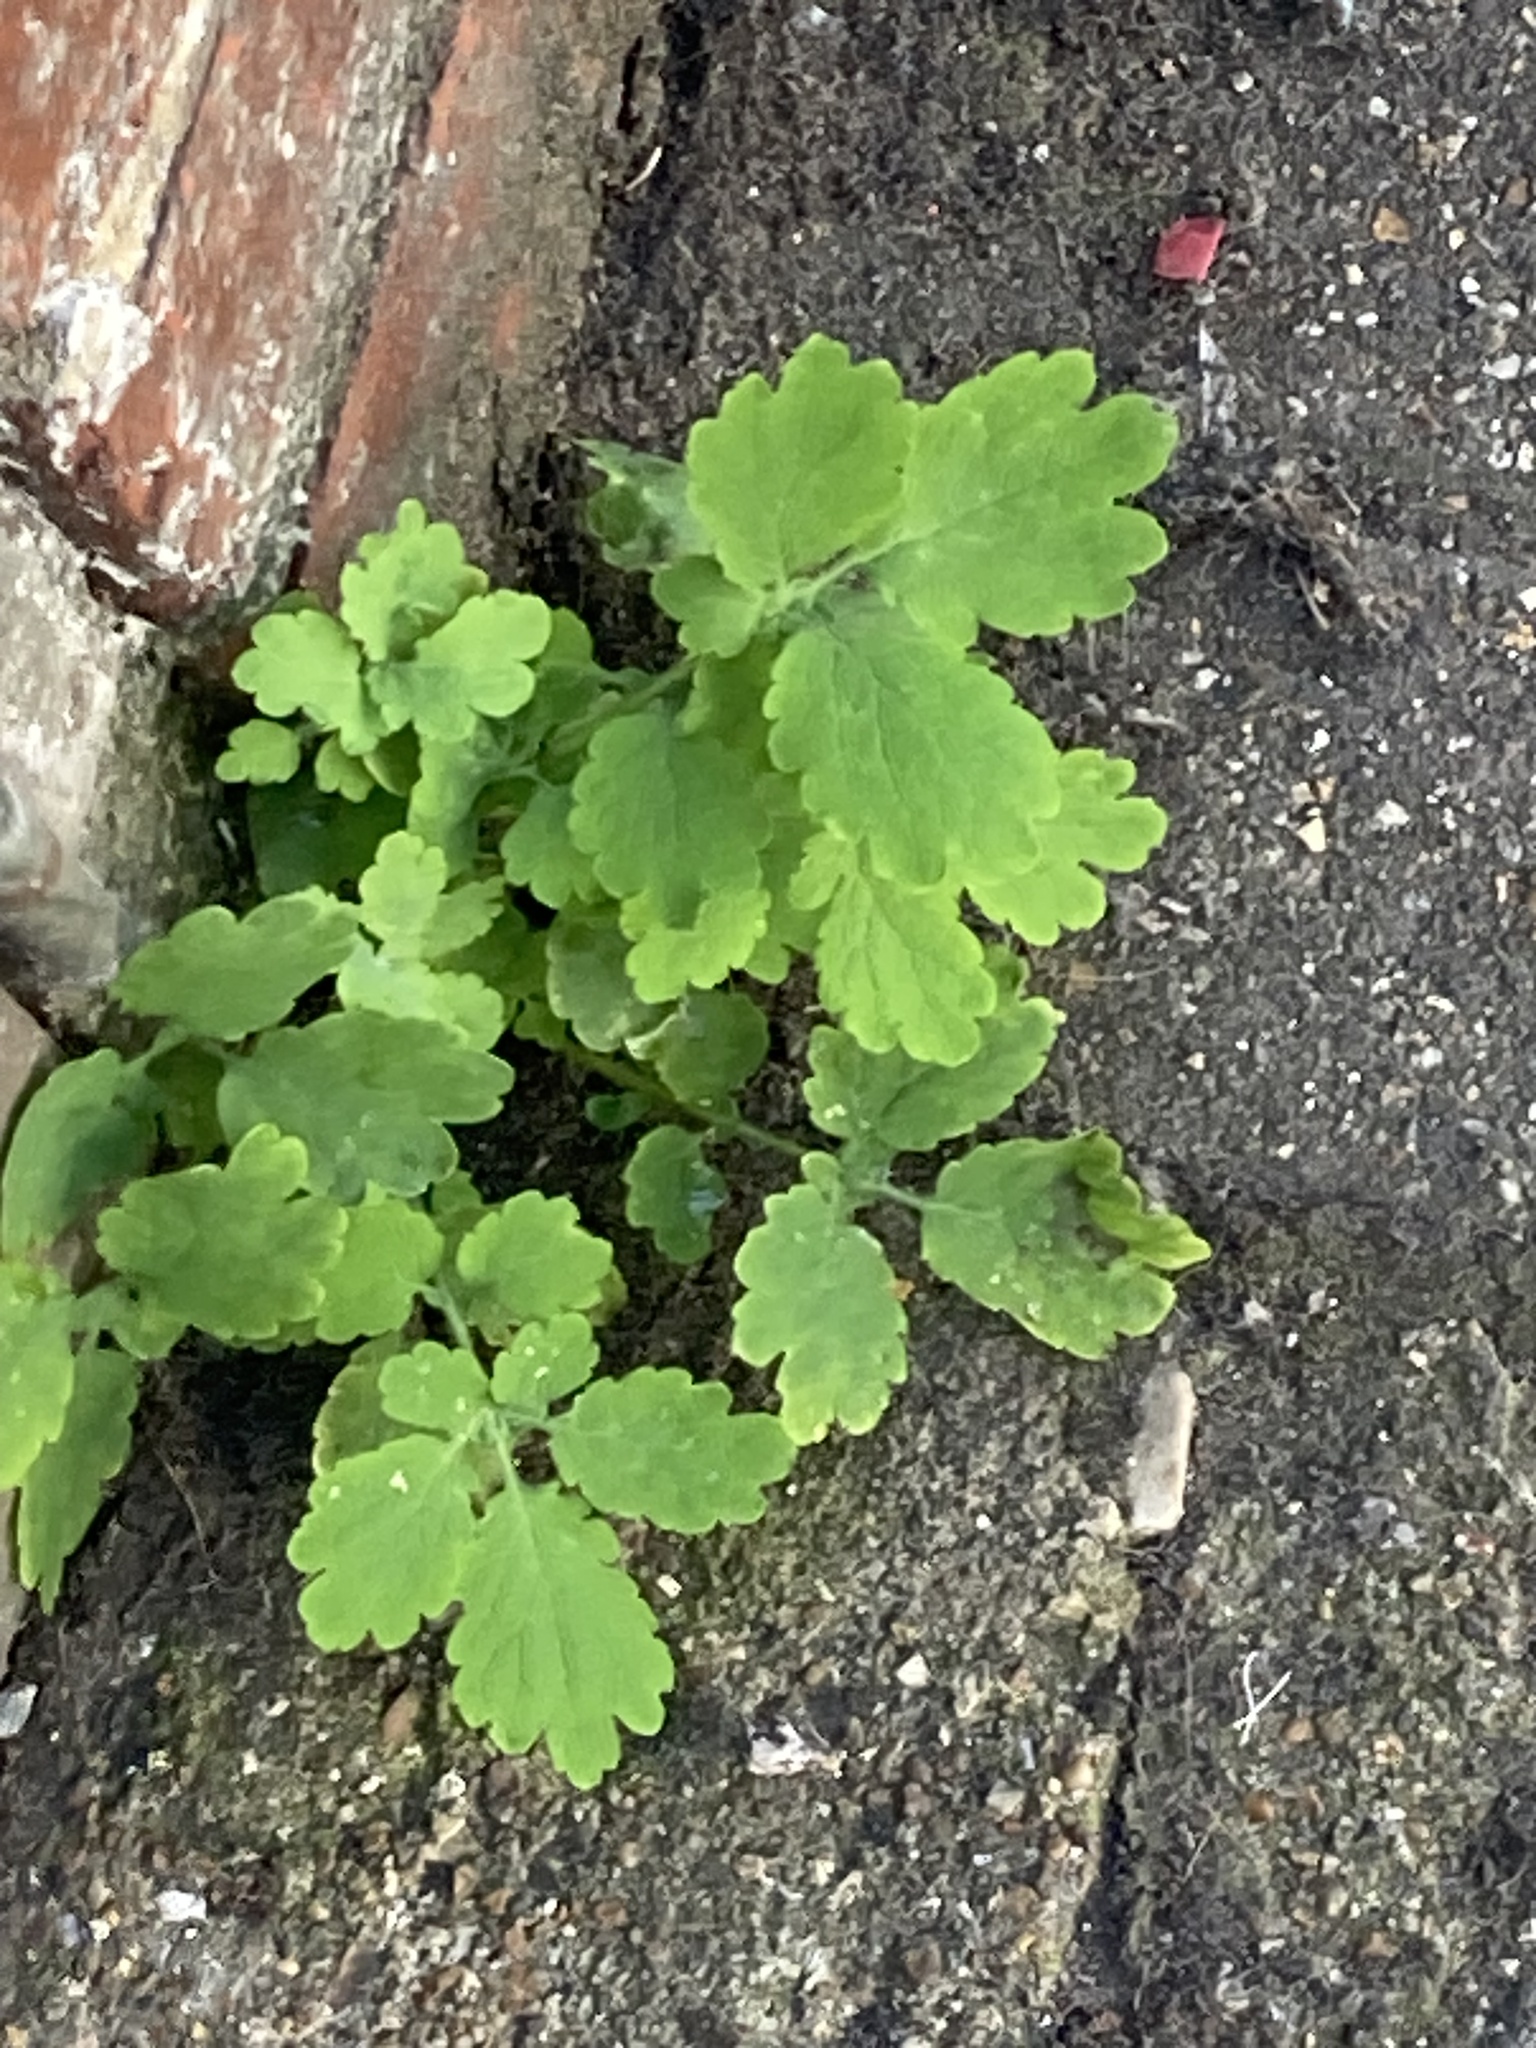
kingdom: Plantae
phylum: Tracheophyta
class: Magnoliopsida
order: Ranunculales
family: Papaveraceae
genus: Chelidonium
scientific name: Chelidonium majus
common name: Greater celandine
